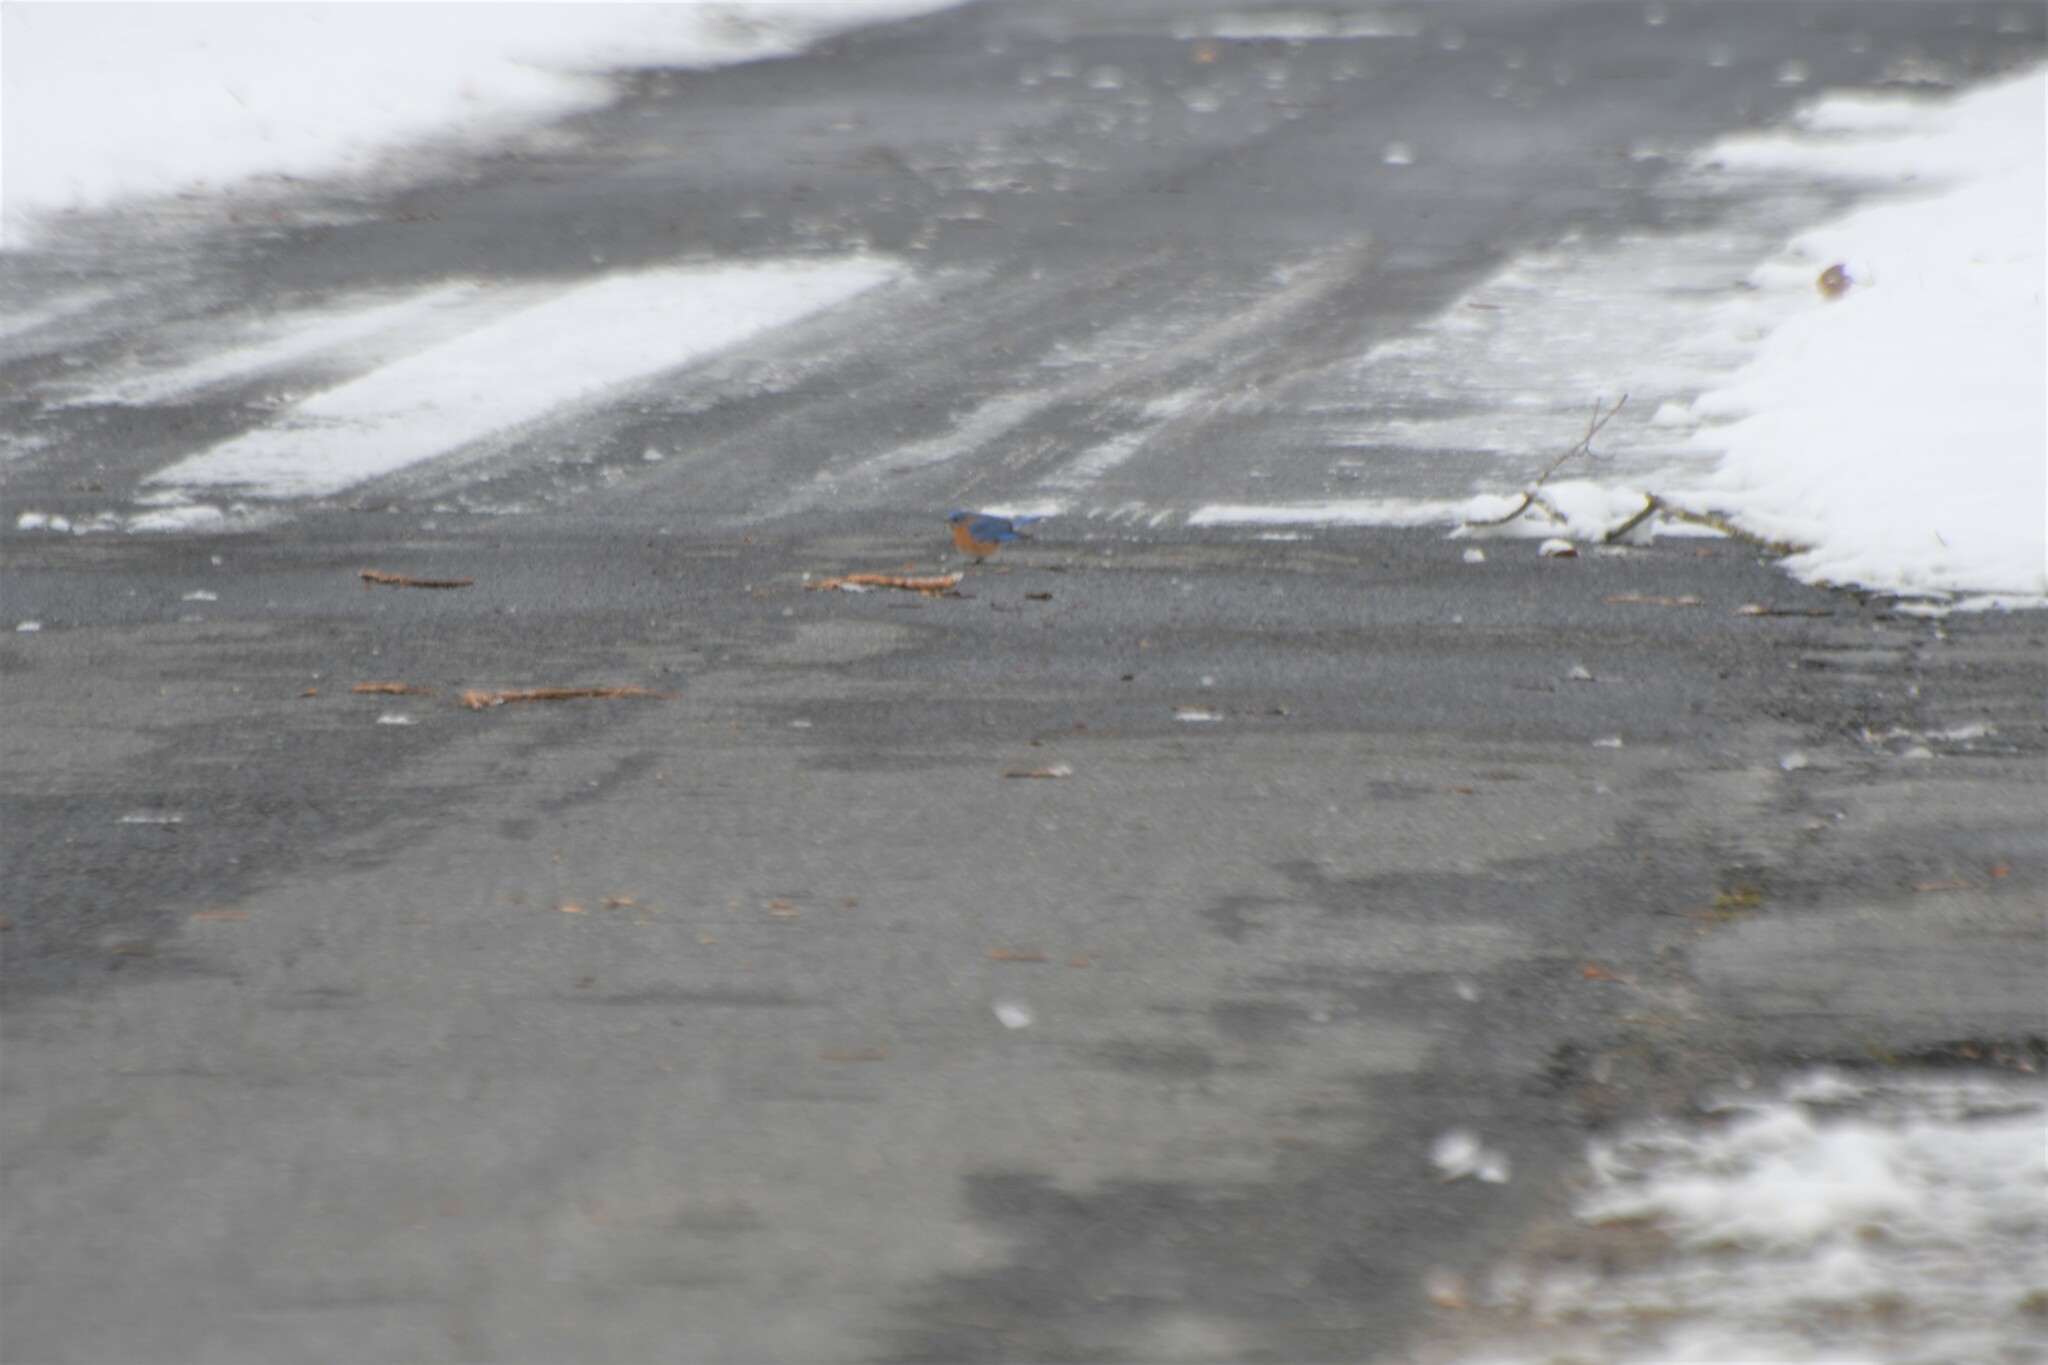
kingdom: Animalia
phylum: Chordata
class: Aves
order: Passeriformes
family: Turdidae
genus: Sialia
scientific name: Sialia sialis
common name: Eastern bluebird
